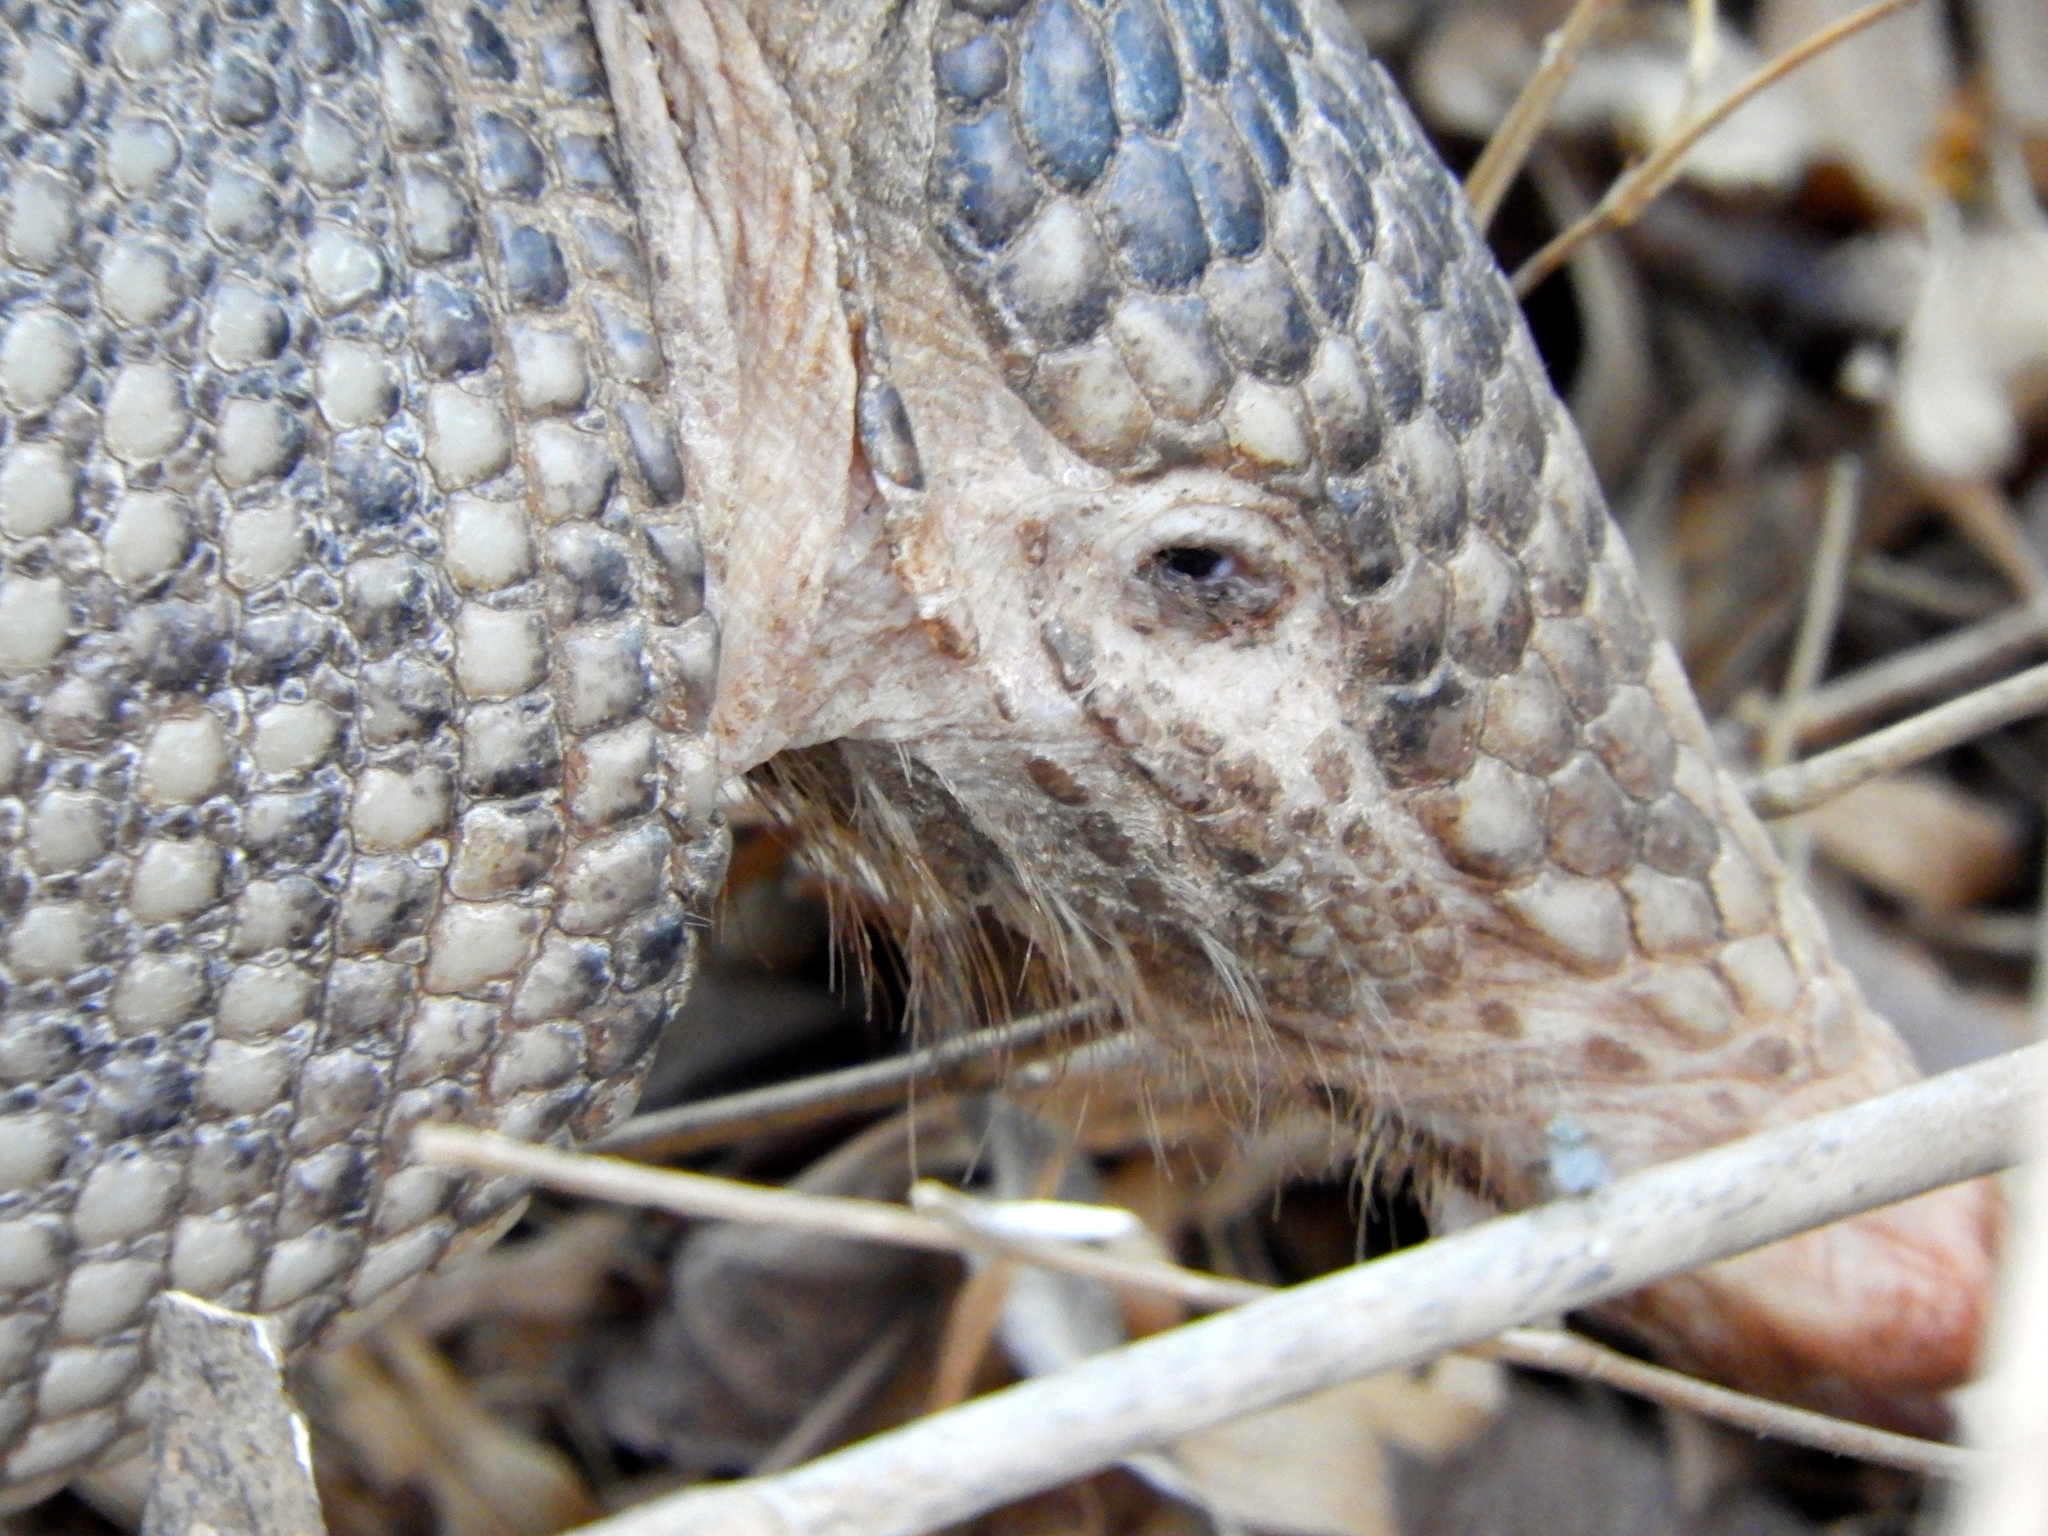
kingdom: Animalia
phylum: Chordata
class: Mammalia
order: Cingulata
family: Dasypodidae
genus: Dasypus
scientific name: Dasypus novemcinctus
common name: Nine-banded armadillo
